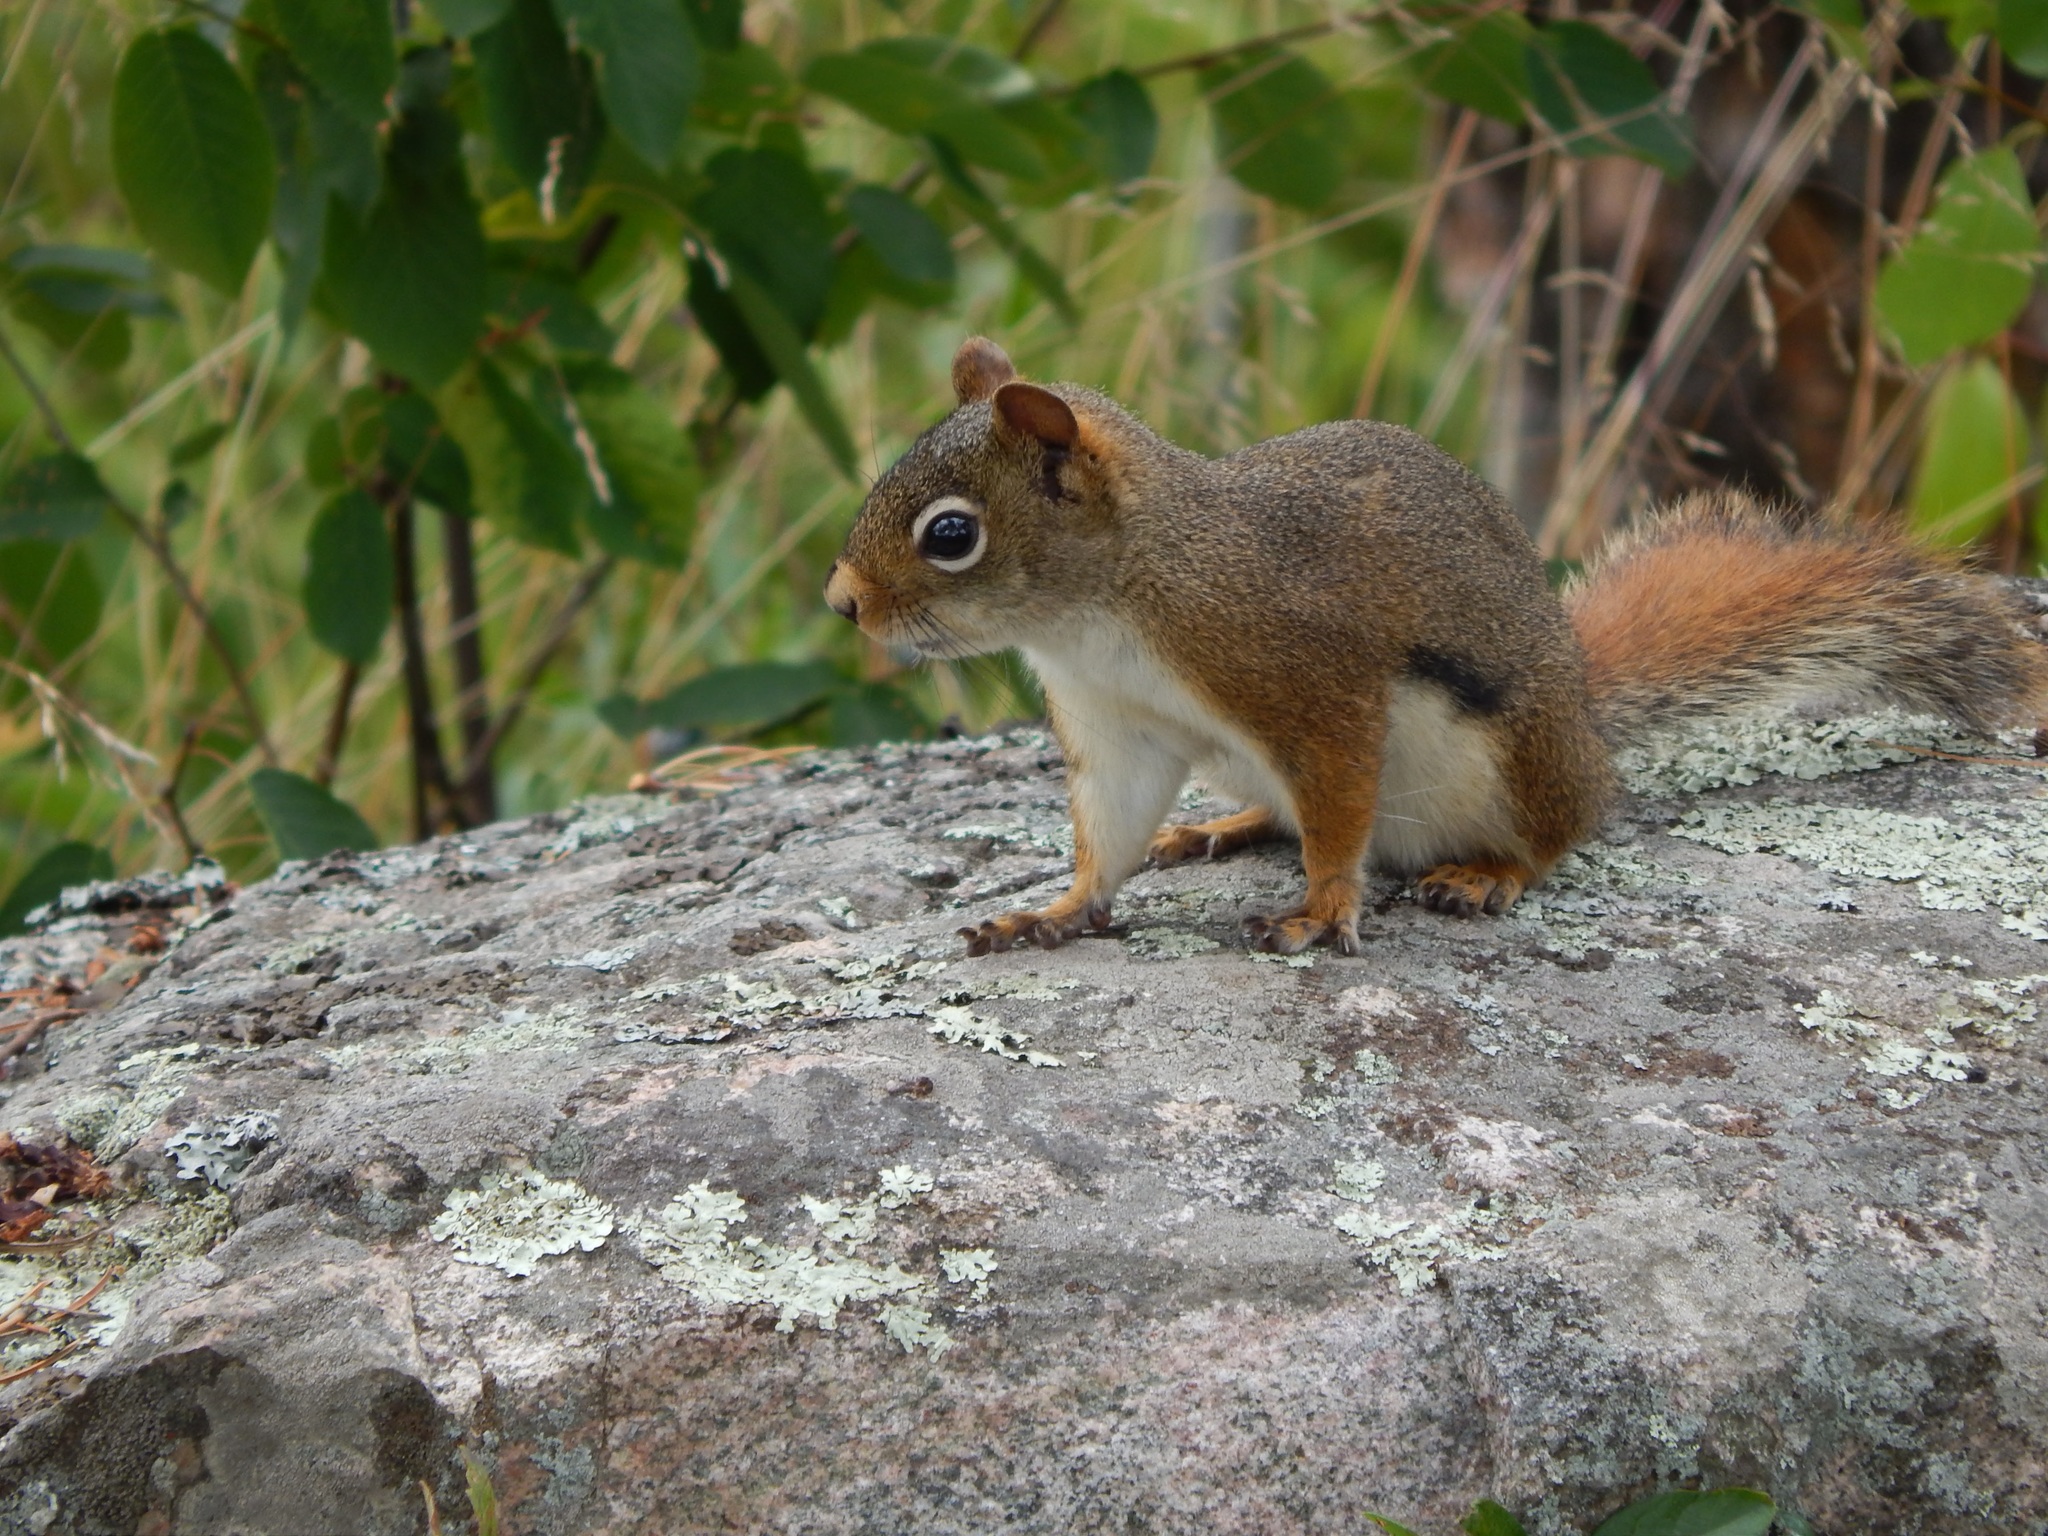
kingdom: Animalia
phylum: Chordata
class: Mammalia
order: Rodentia
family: Sciuridae
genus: Tamiasciurus
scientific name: Tamiasciurus hudsonicus
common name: Red squirrel
